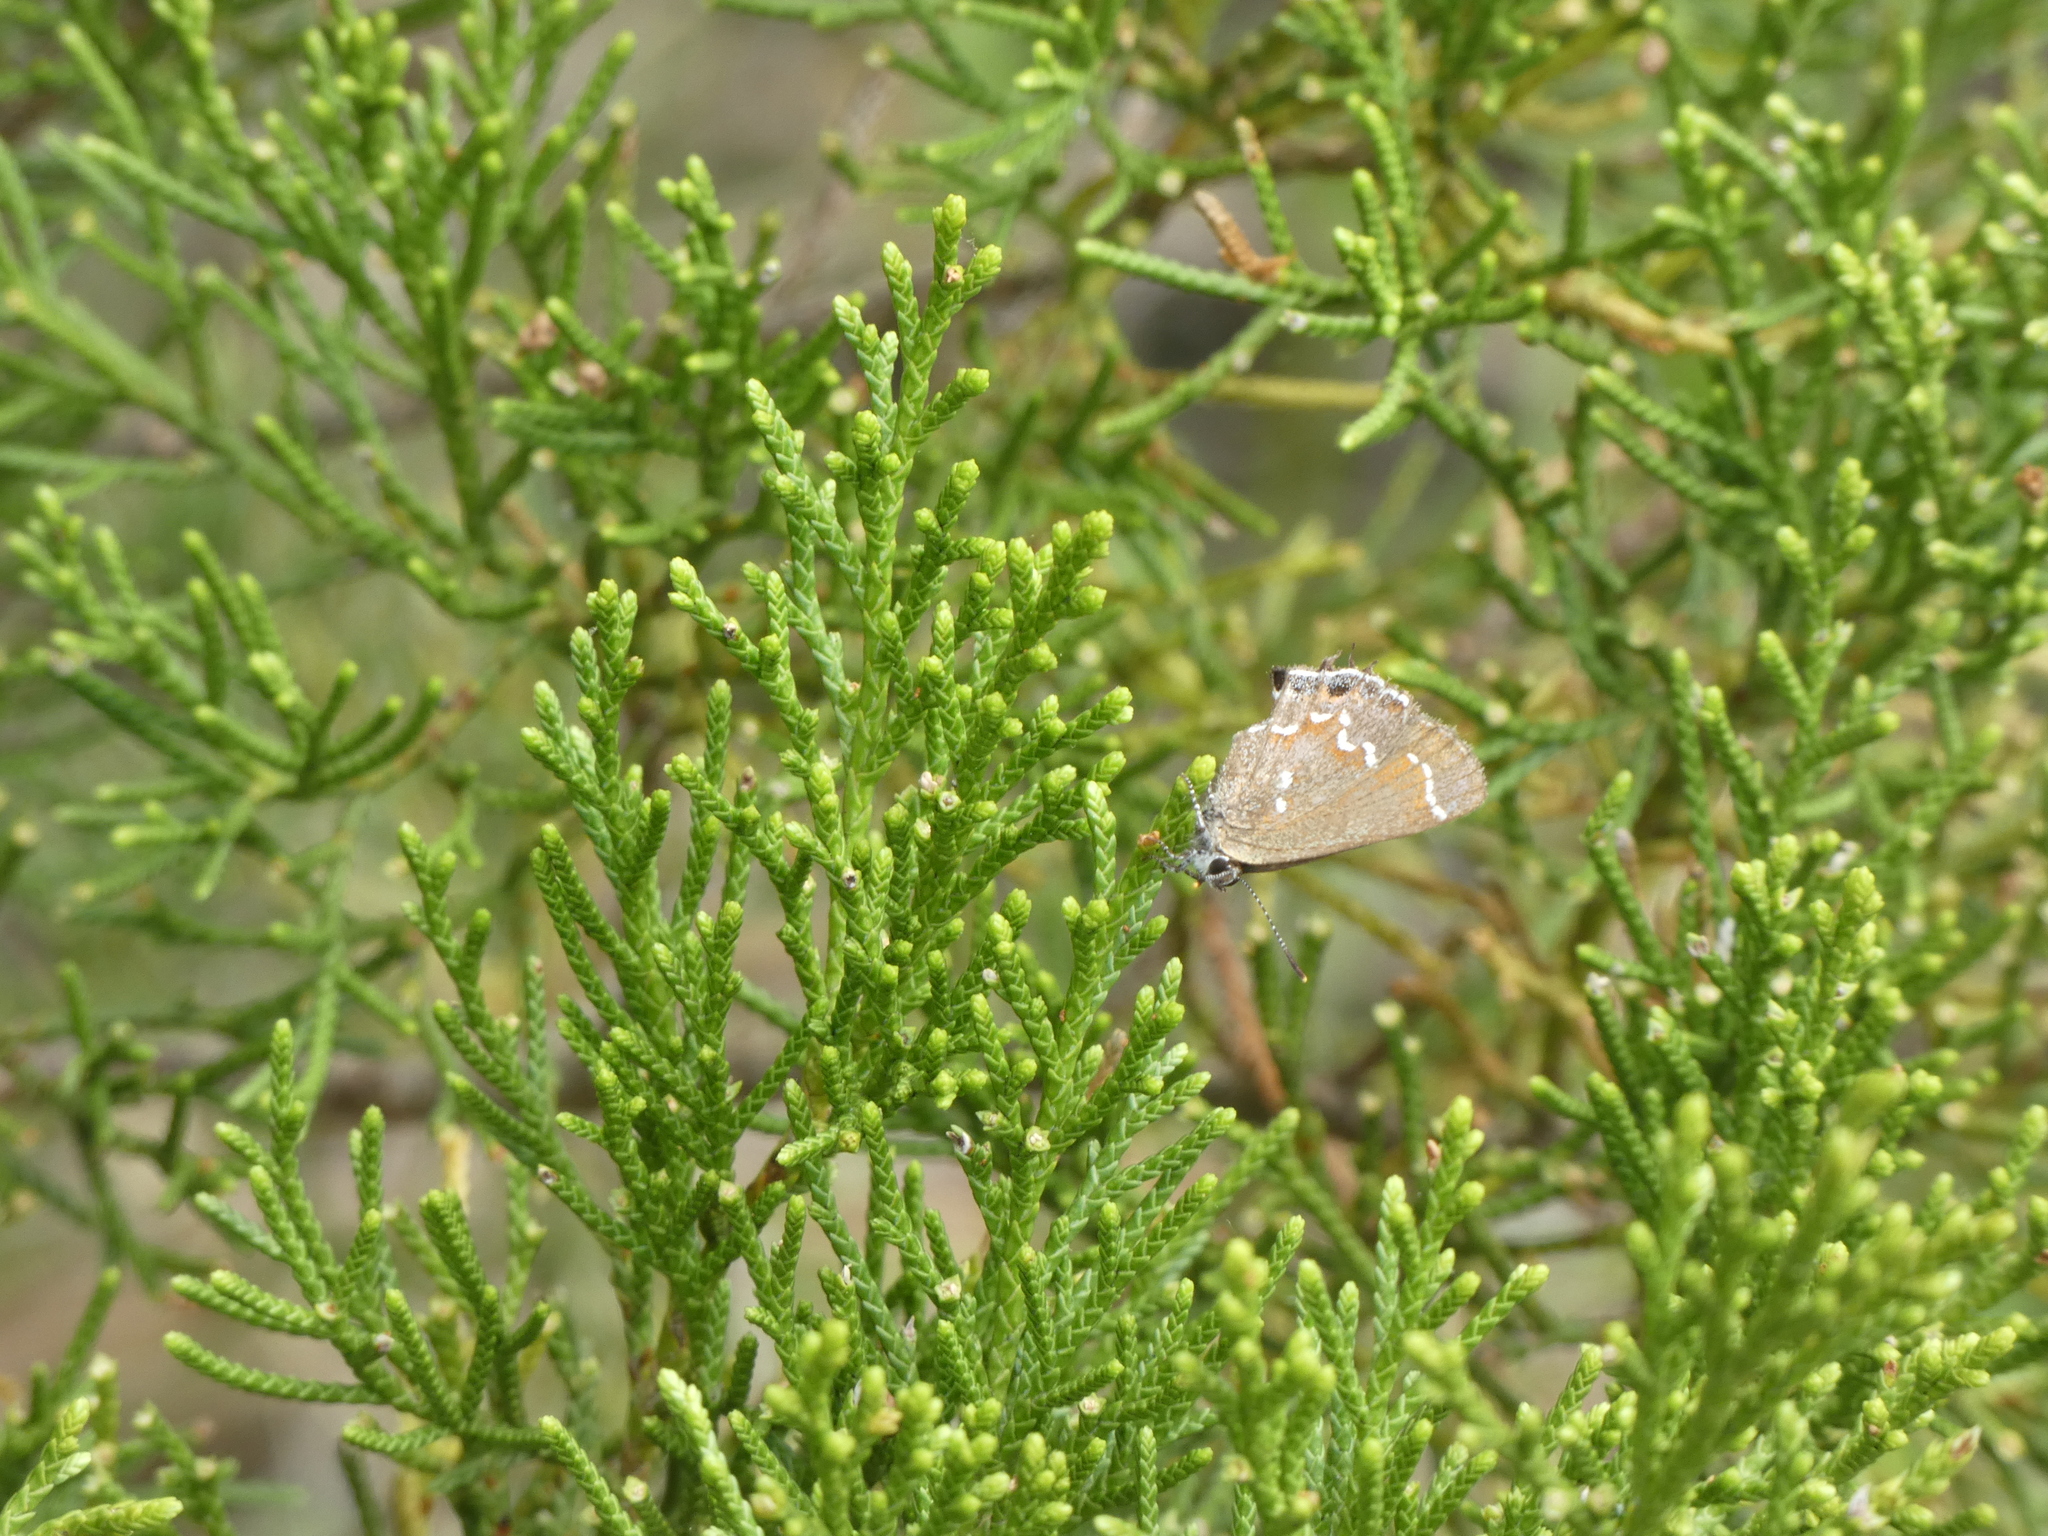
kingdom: Animalia
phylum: Arthropoda
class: Insecta
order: Lepidoptera
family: Lycaenidae
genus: Mitoura
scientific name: Mitoura gryneus
